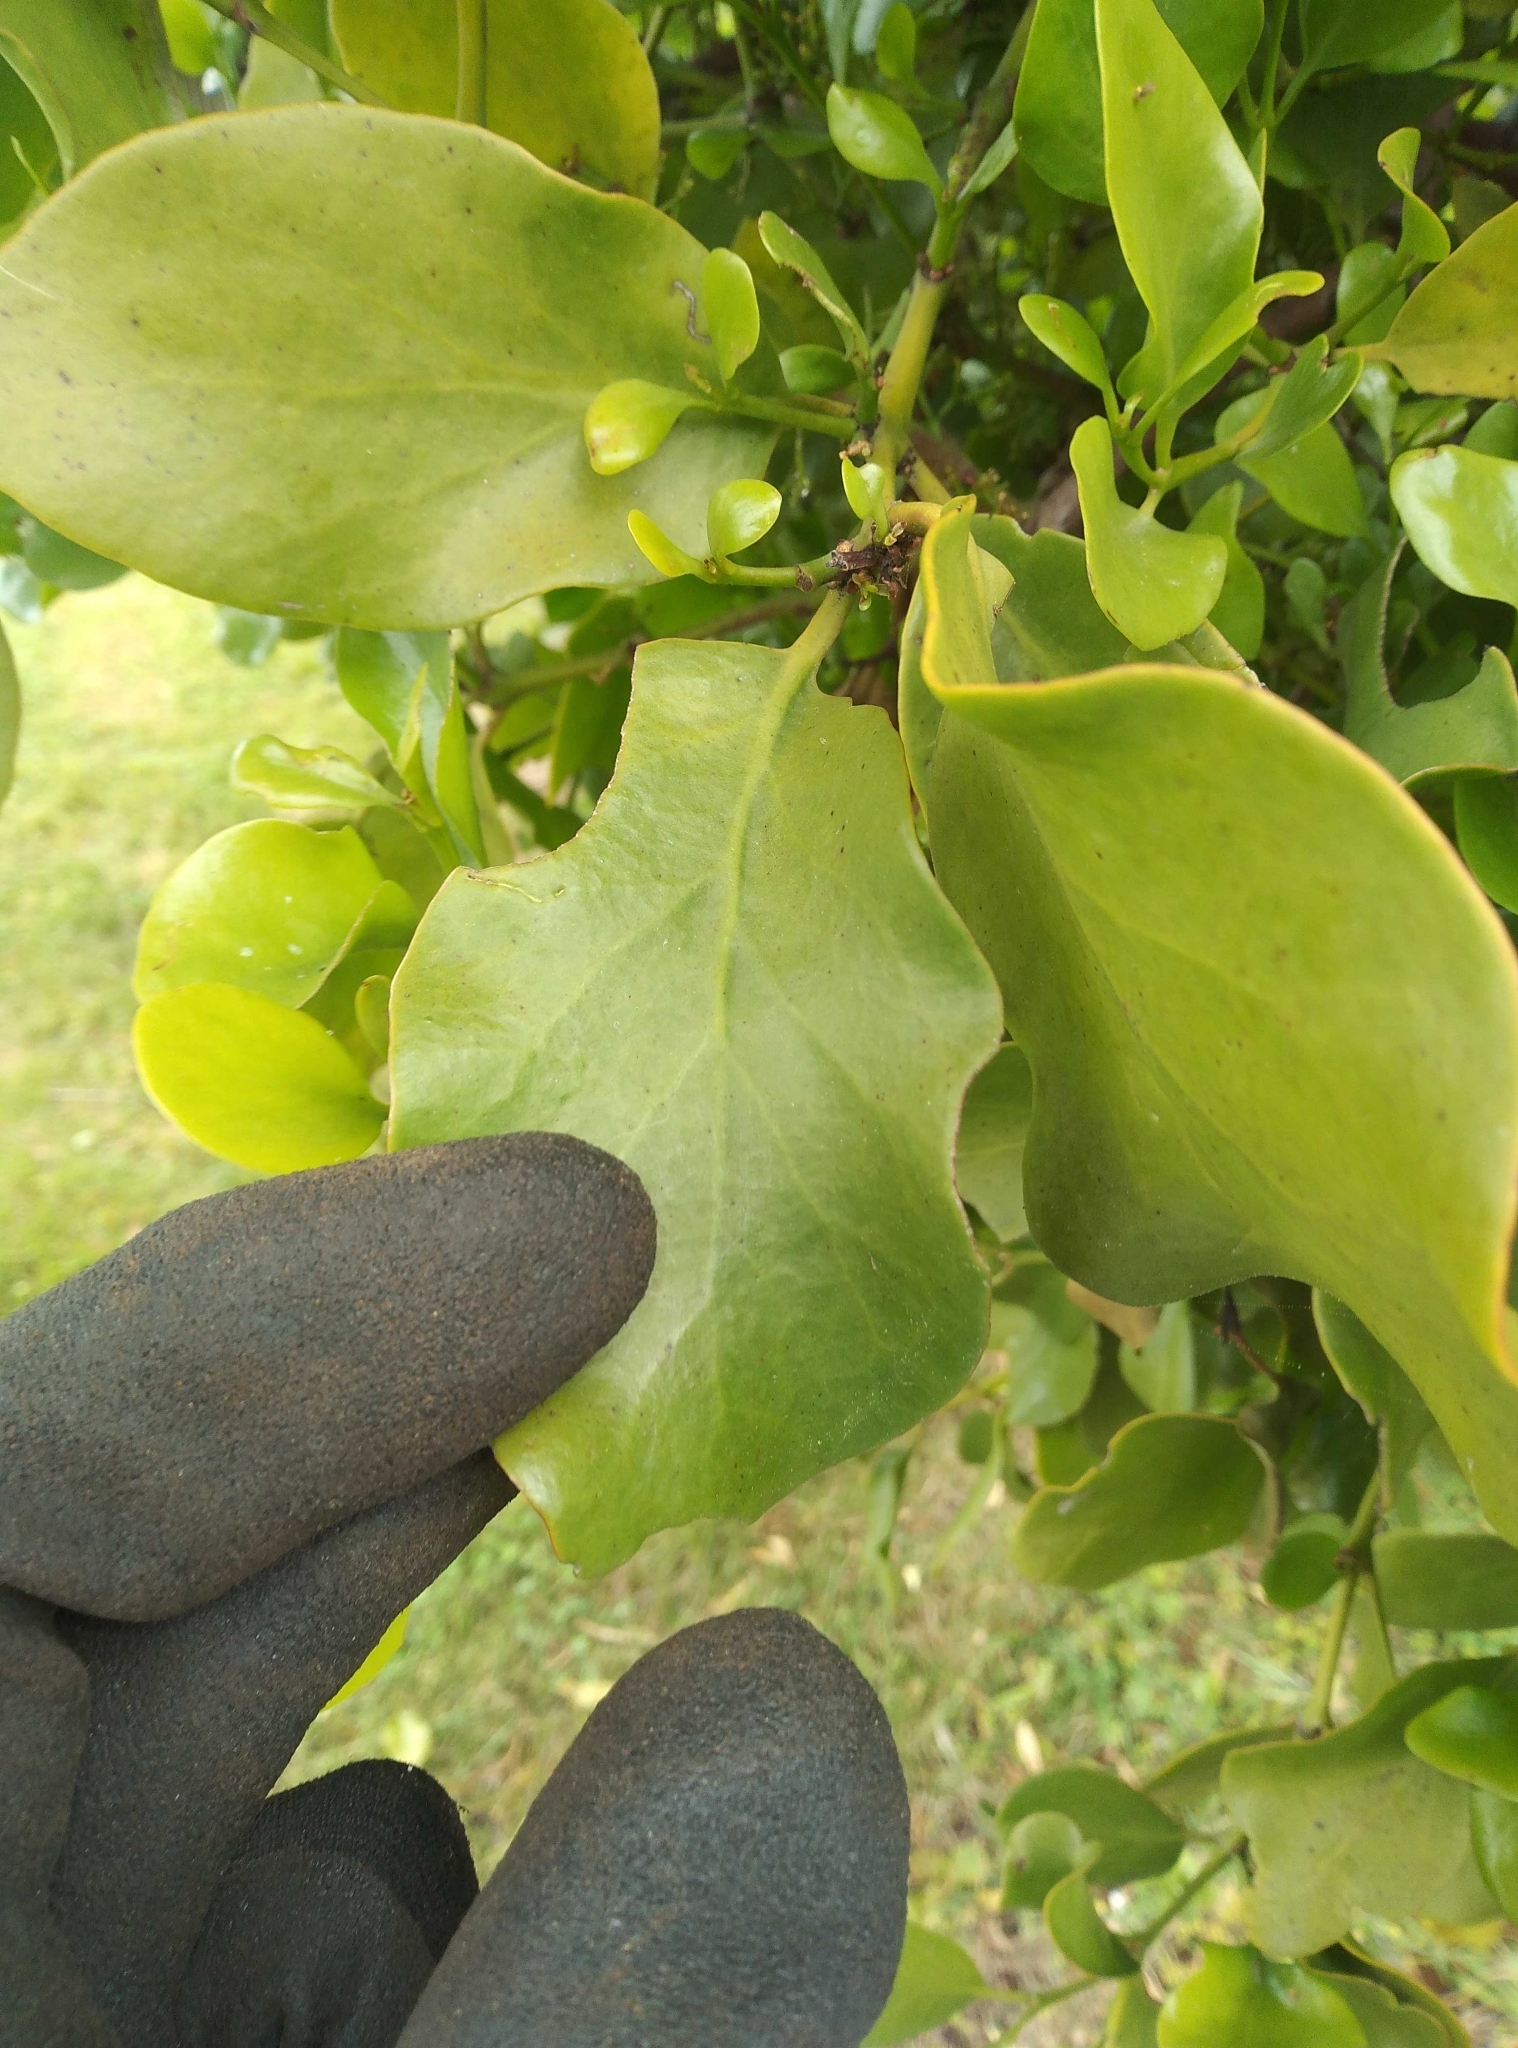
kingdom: Plantae
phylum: Tracheophyta
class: Magnoliopsida
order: Santalales
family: Loranthaceae
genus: Ileostylus
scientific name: Ileostylus micranthus
